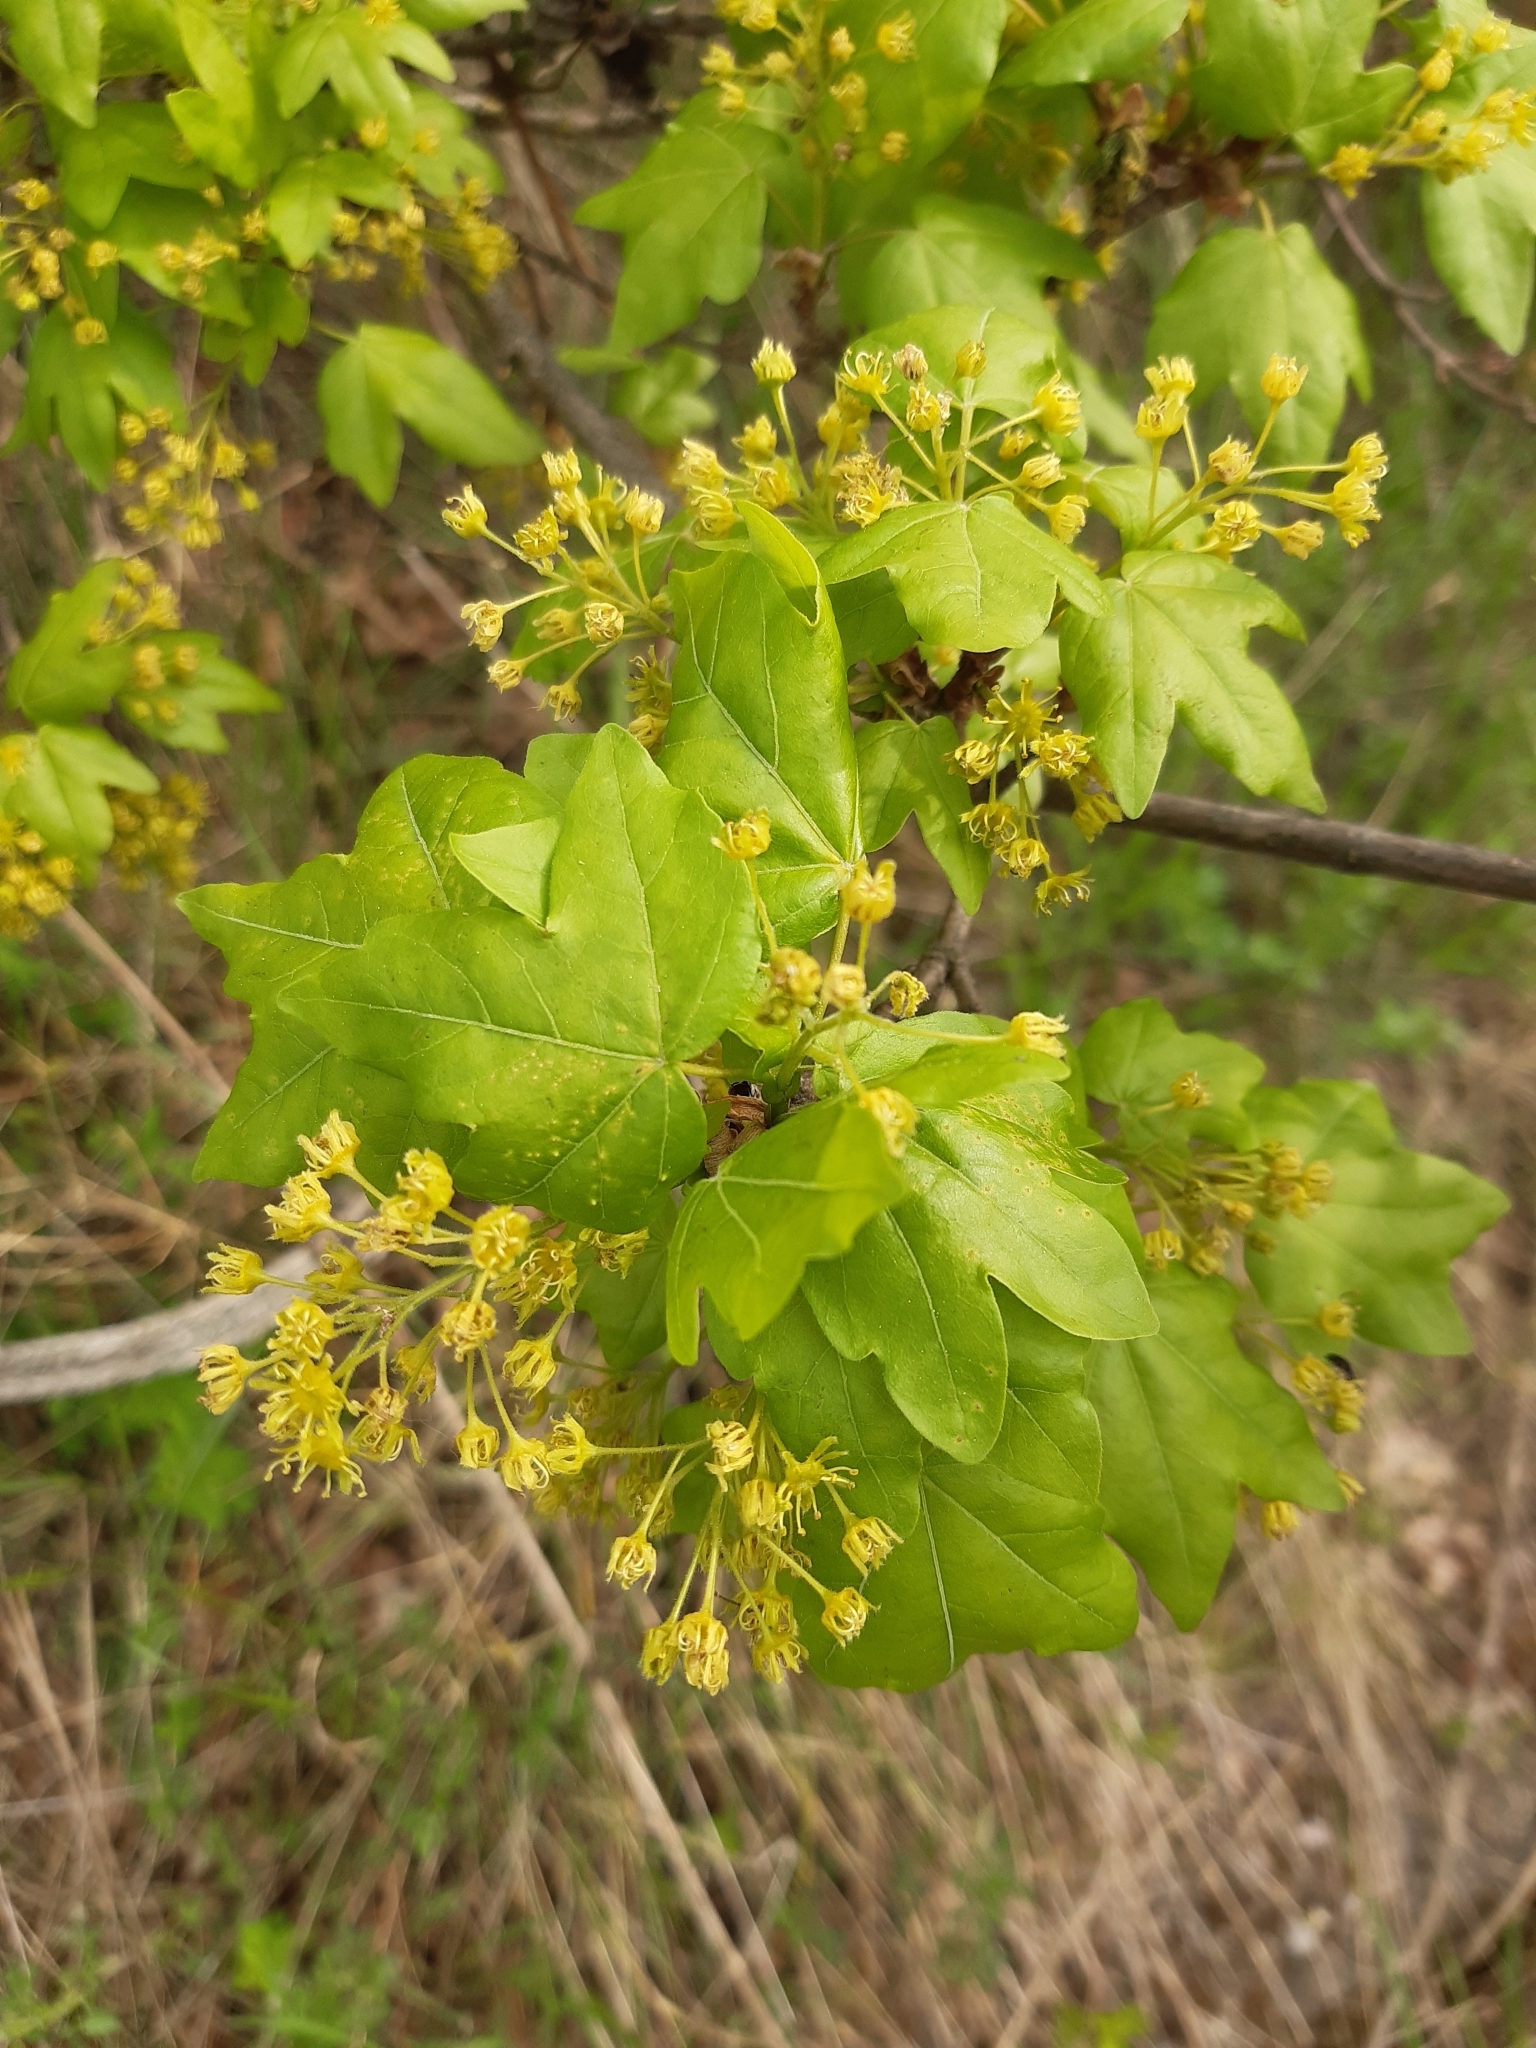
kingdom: Plantae
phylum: Tracheophyta
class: Magnoliopsida
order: Sapindales
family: Sapindaceae
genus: Acer
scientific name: Acer campestre
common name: Field maple
